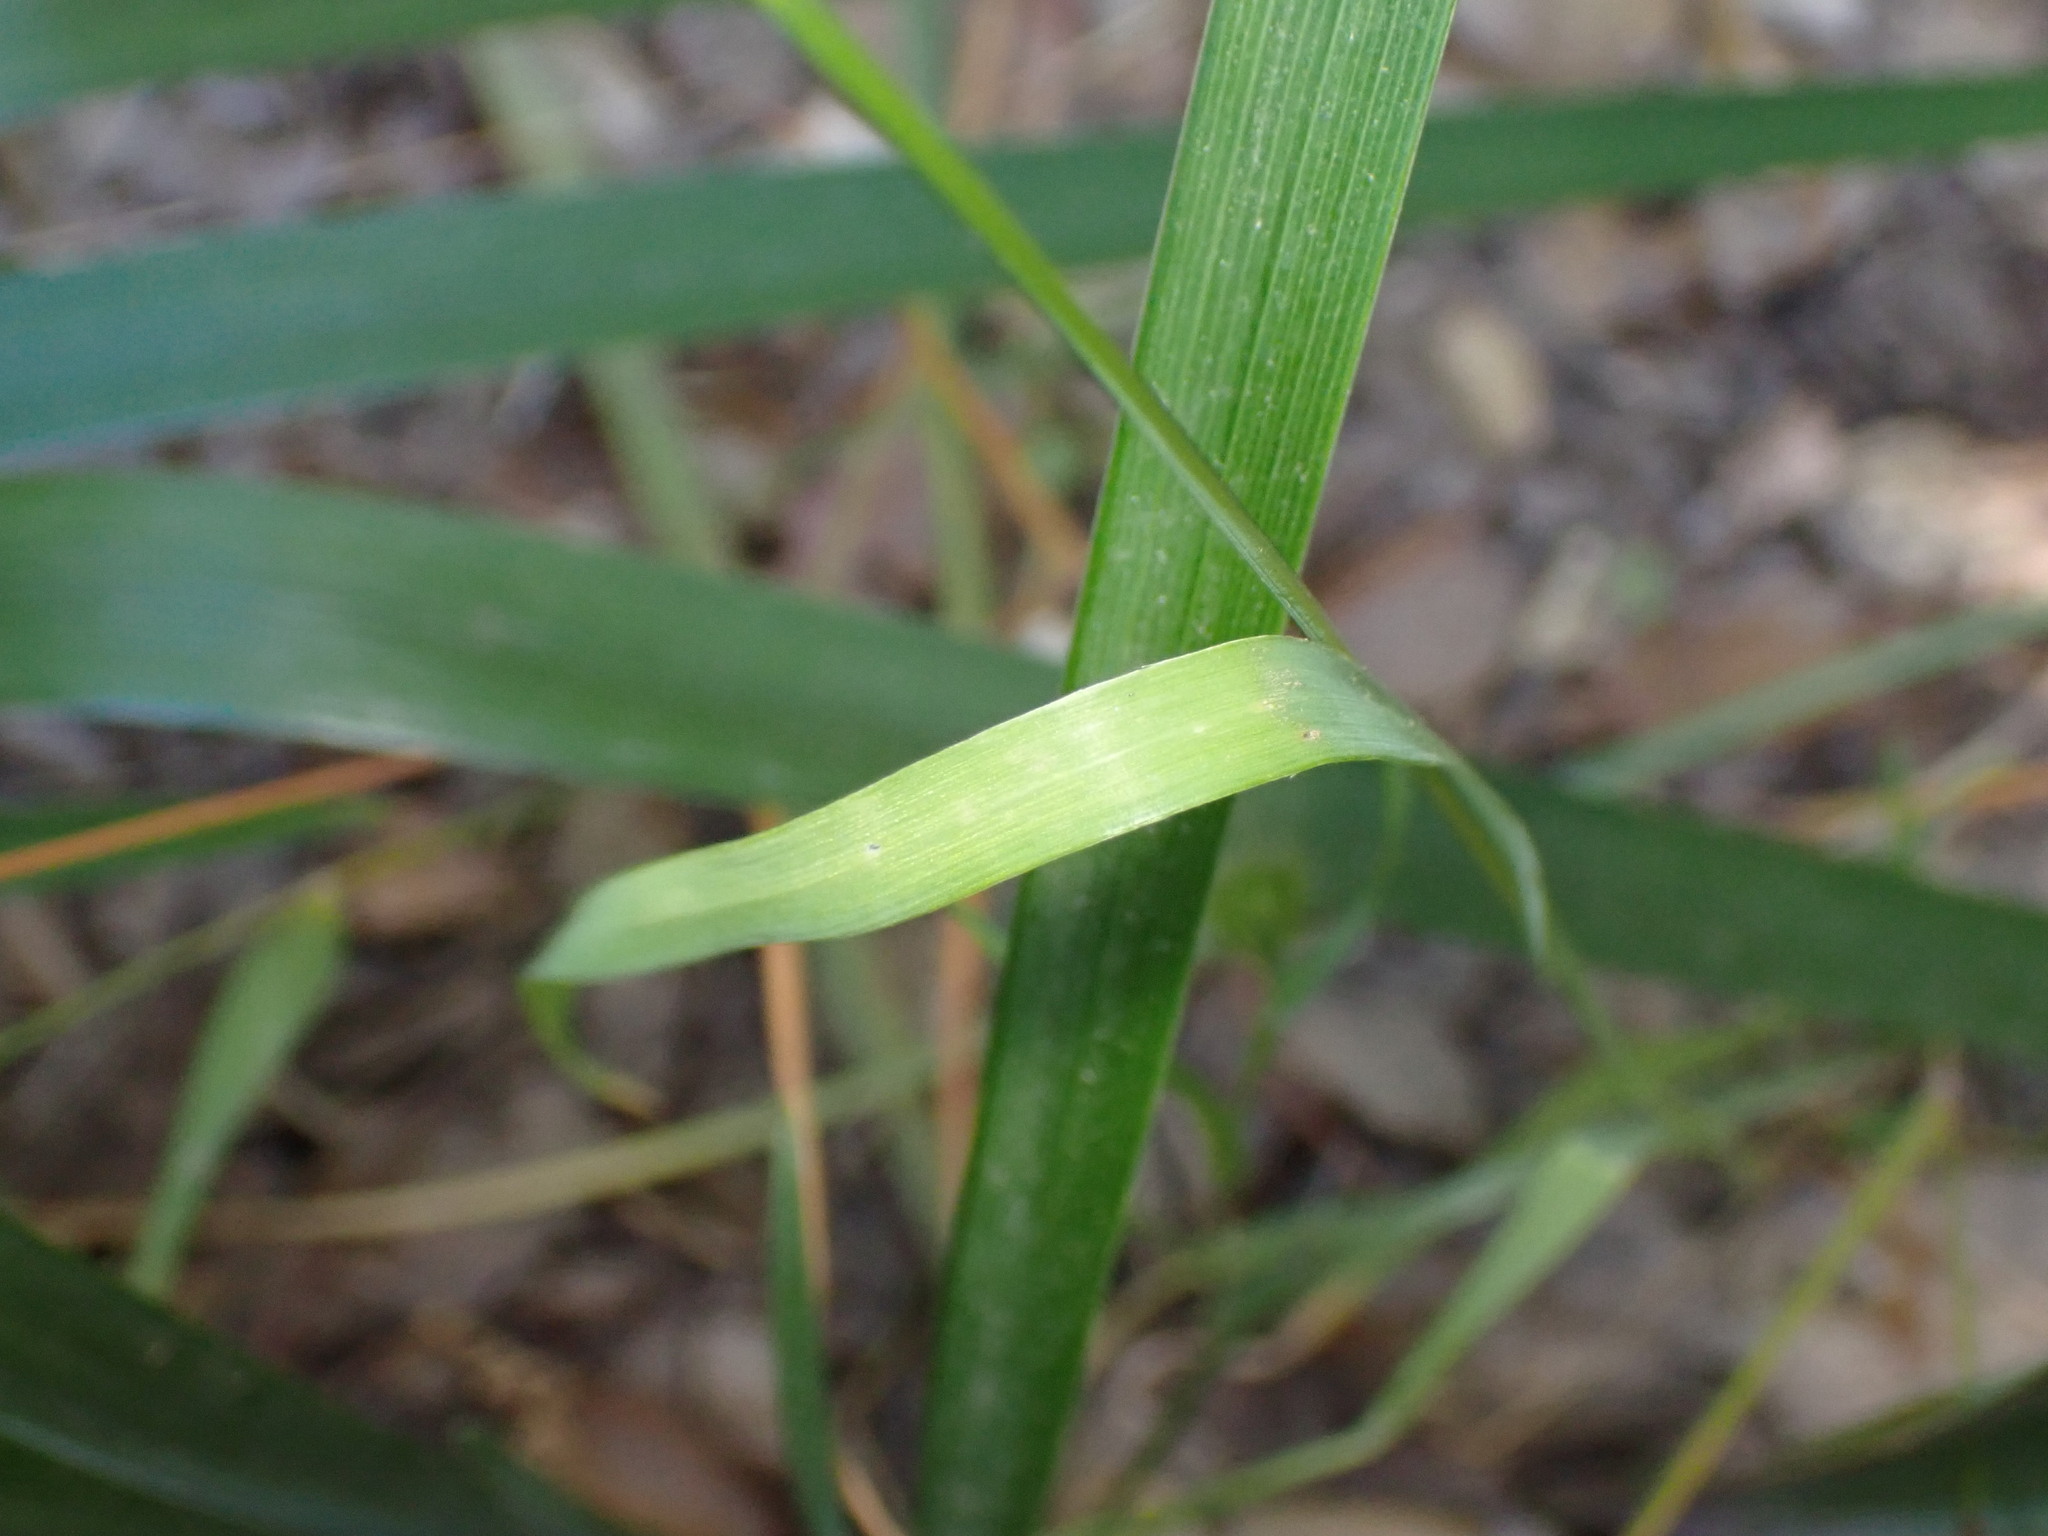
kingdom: Plantae
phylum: Tracheophyta
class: Liliopsida
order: Poales
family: Poaceae
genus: Cynosurus
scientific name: Cynosurus echinatus
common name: Rough dog's-tail
